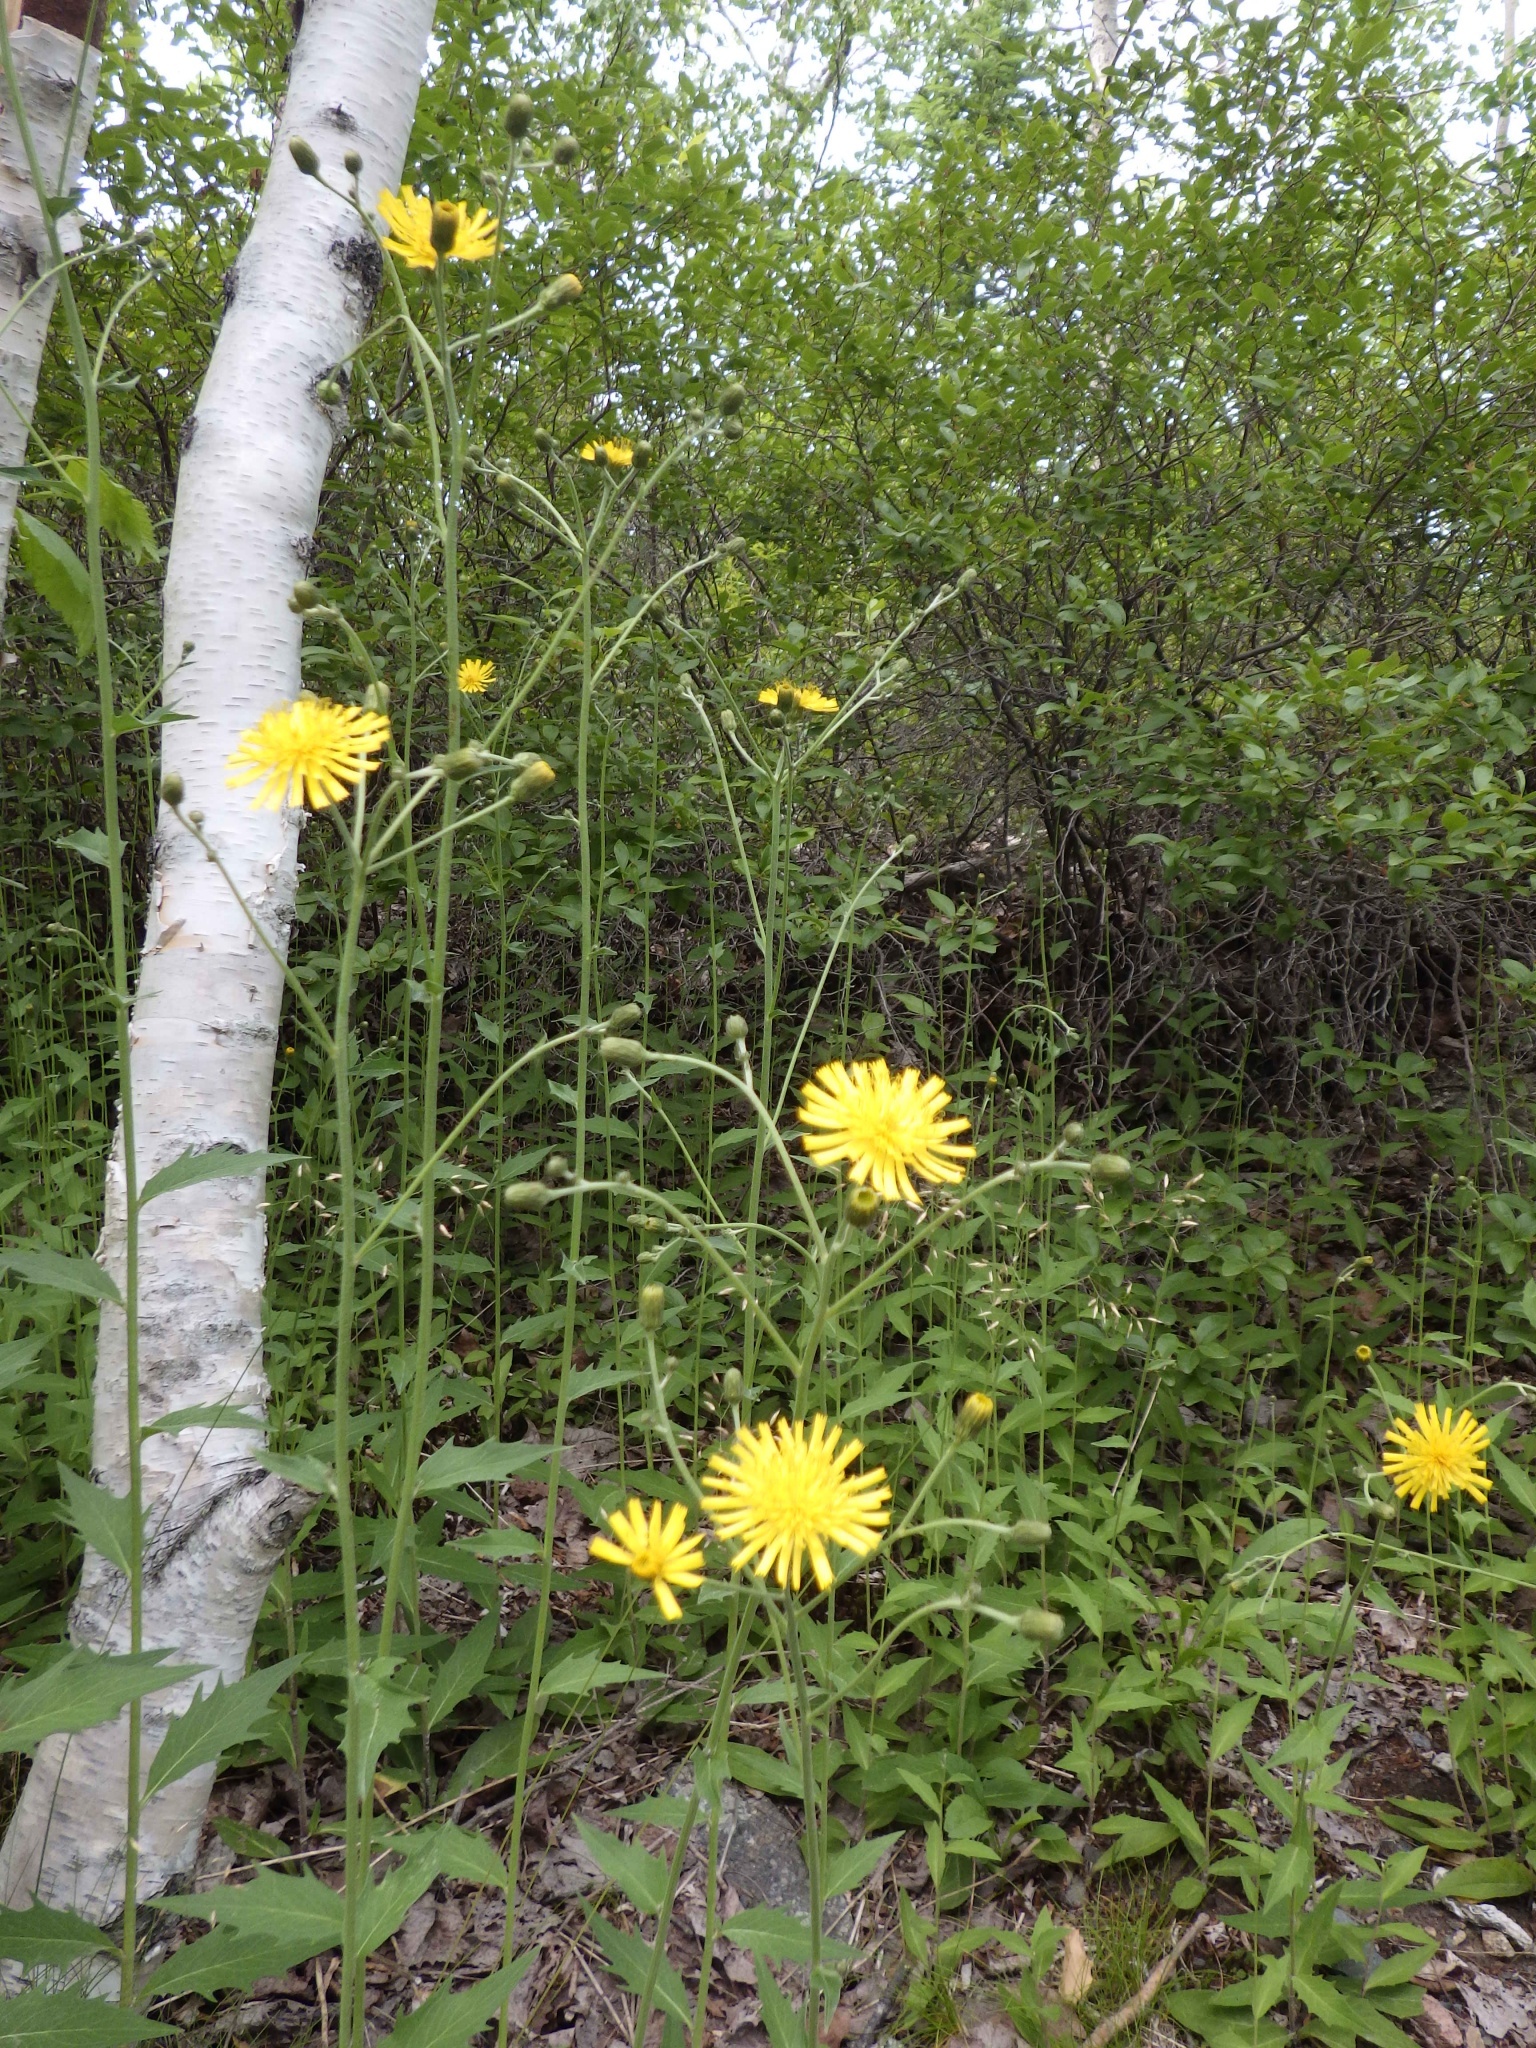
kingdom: Plantae
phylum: Tracheophyta
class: Magnoliopsida
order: Asterales
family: Asteraceae
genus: Hieracium
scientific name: Hieracium lachenalii
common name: Common hawkweed
